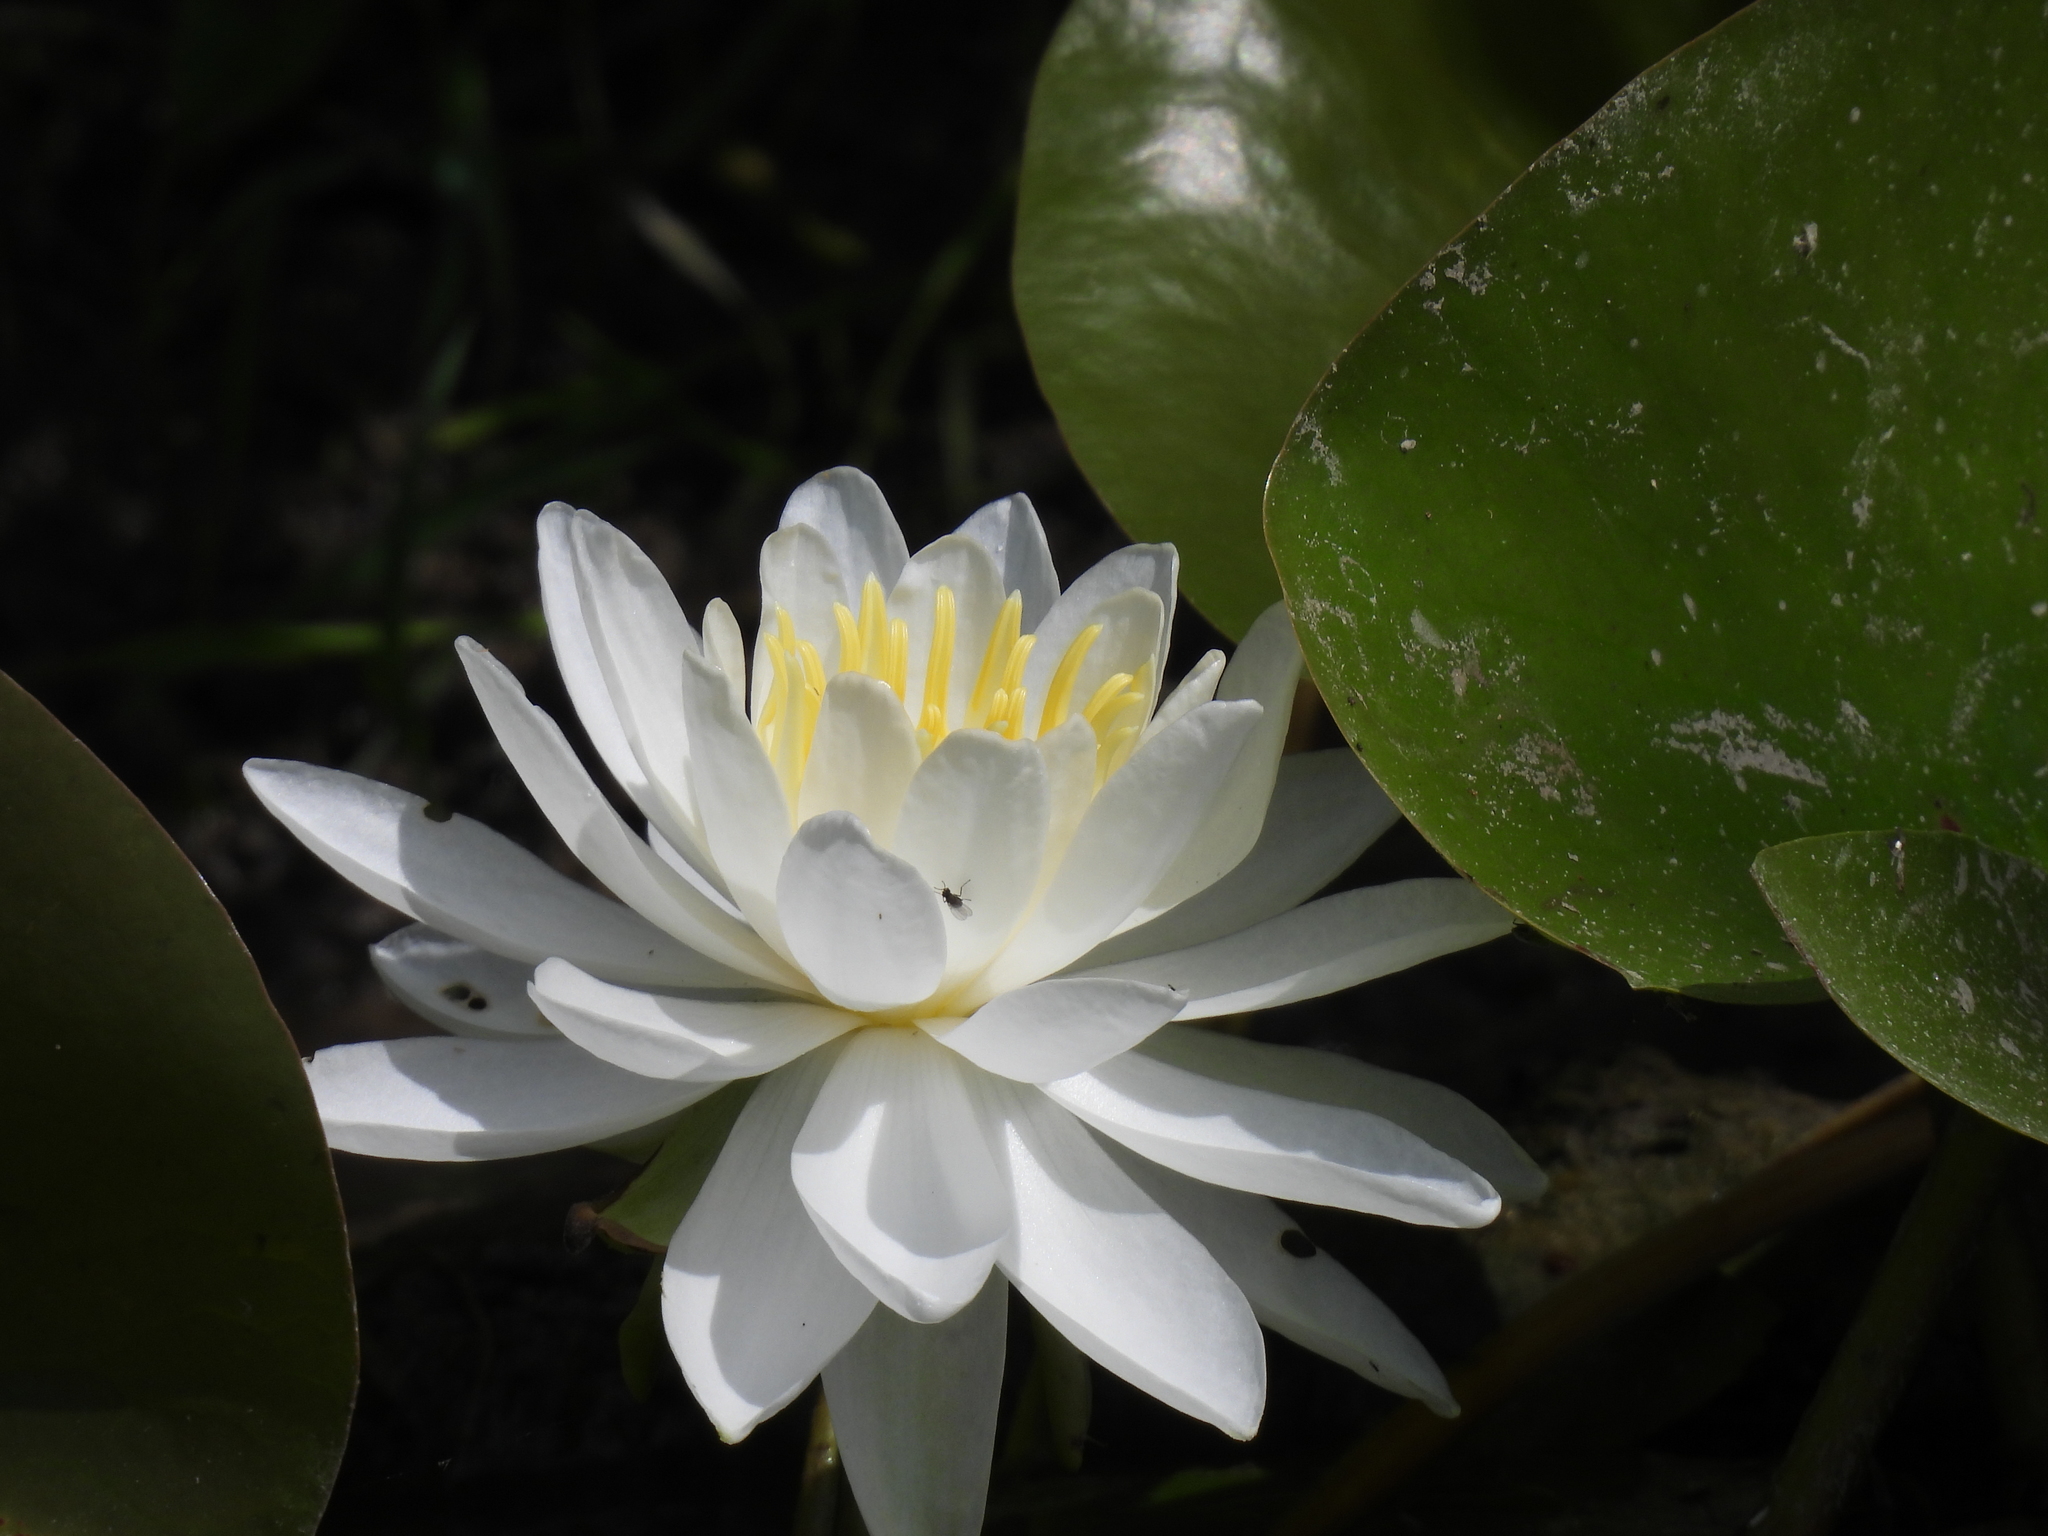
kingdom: Plantae
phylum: Tracheophyta
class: Magnoliopsida
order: Nymphaeales
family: Nymphaeaceae
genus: Nymphaea
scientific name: Nymphaea odorata
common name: Fragrant water-lily
